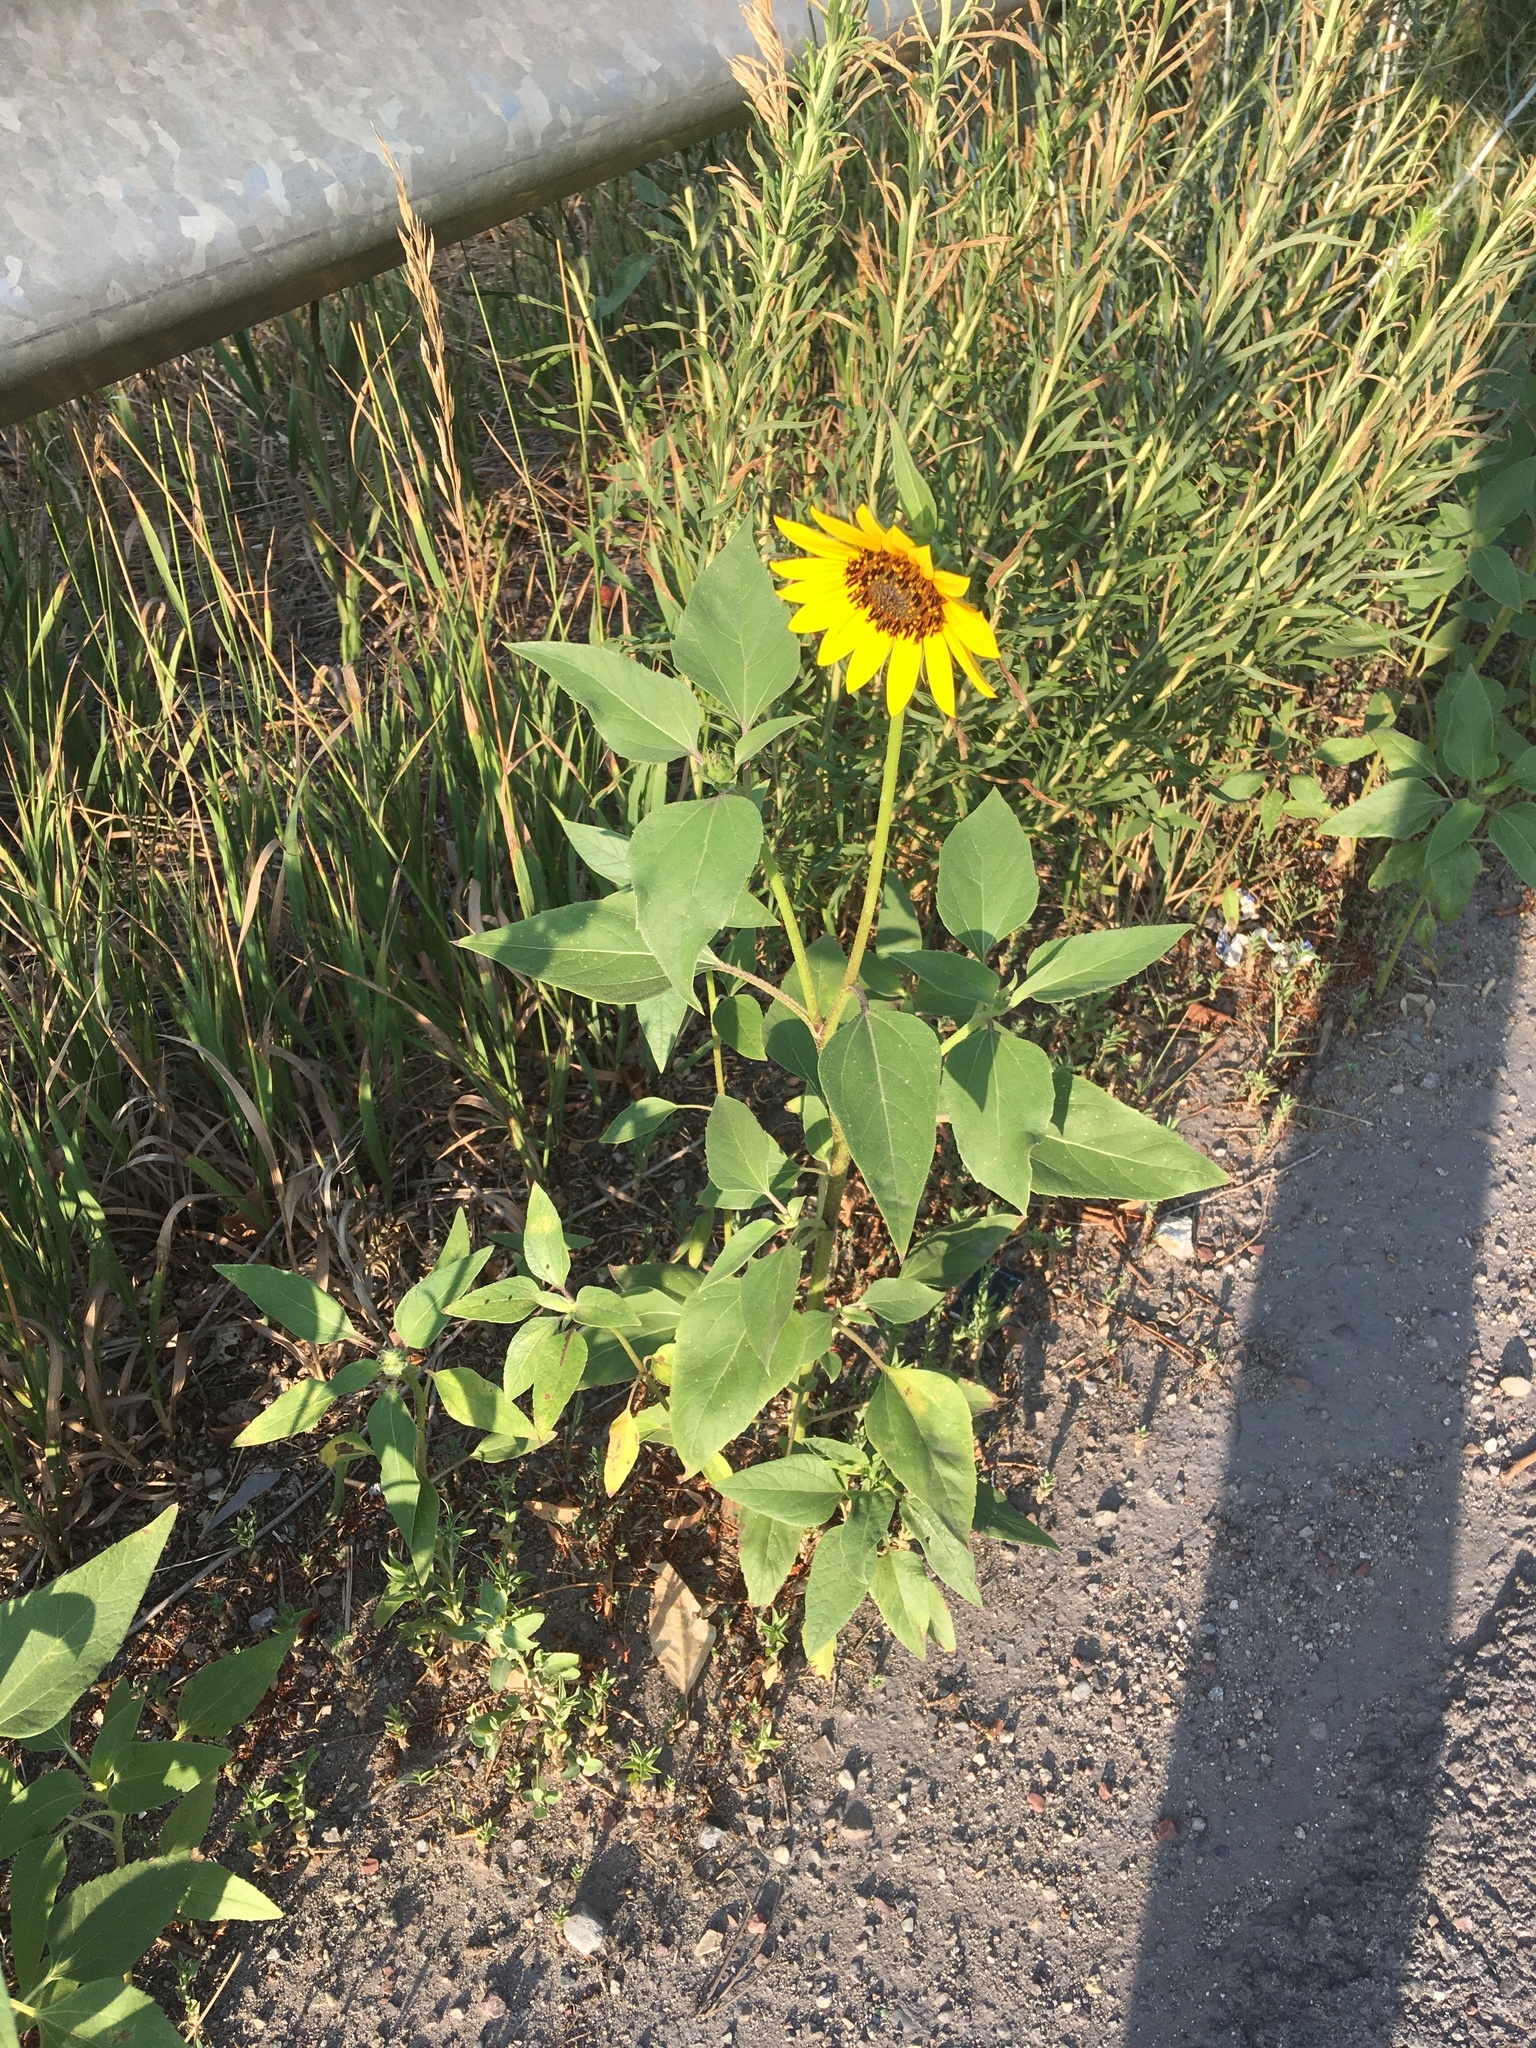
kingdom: Plantae
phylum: Tracheophyta
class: Magnoliopsida
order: Asterales
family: Asteraceae
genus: Helianthus
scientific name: Helianthus annuus
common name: Sunflower
